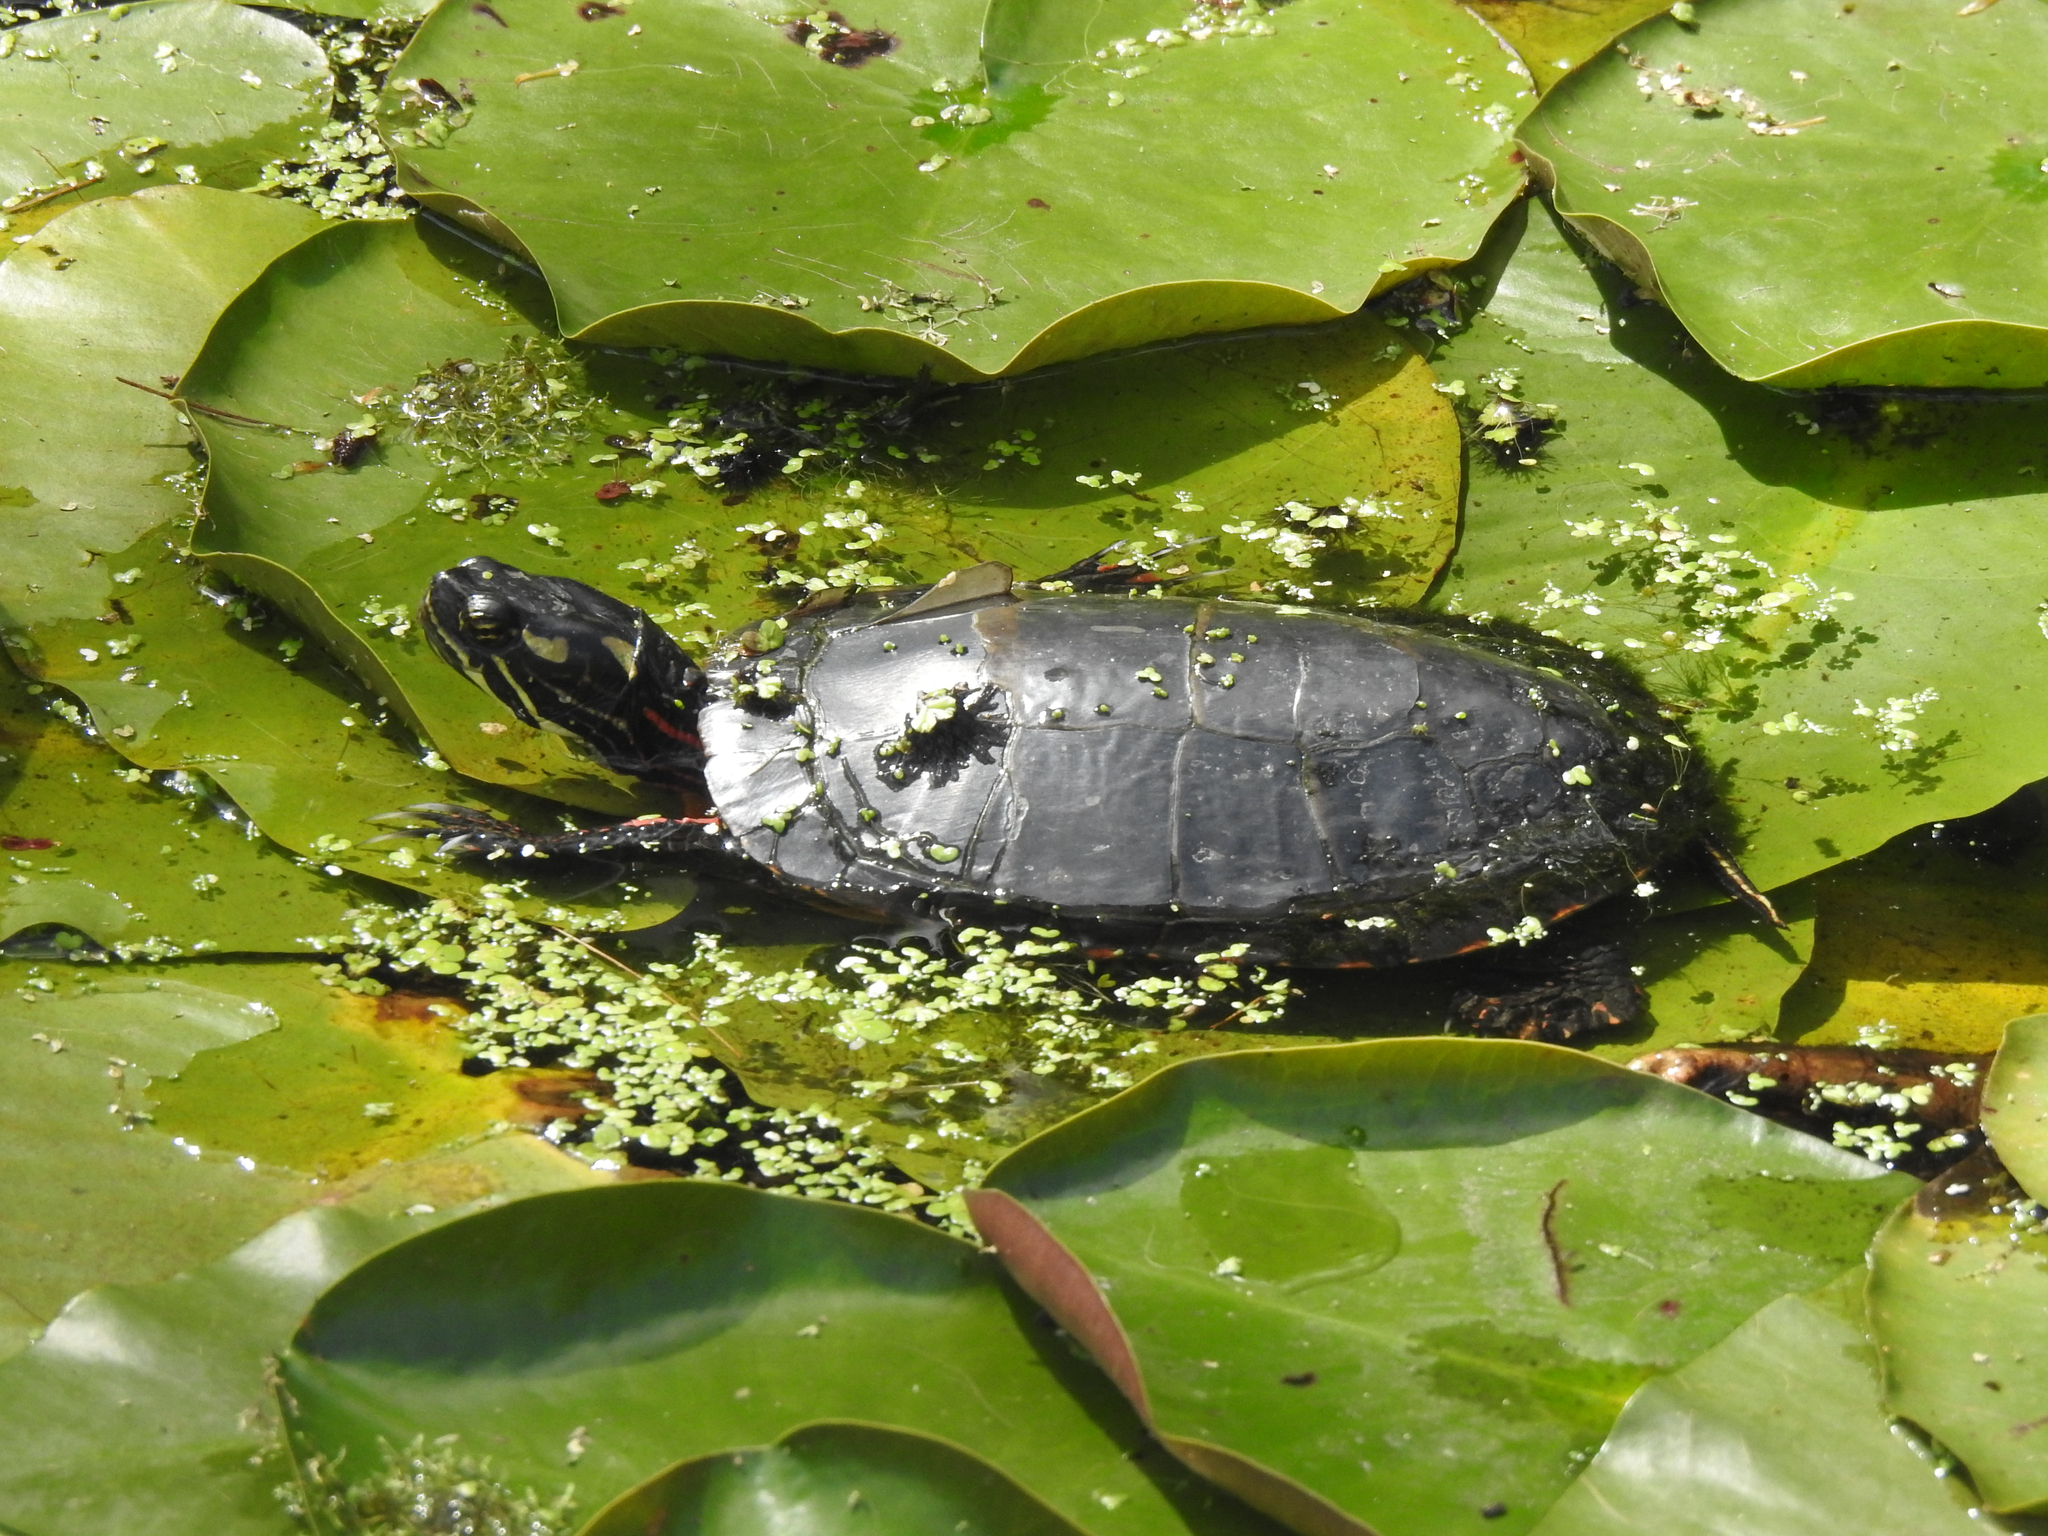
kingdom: Animalia
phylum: Chordata
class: Testudines
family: Emydidae
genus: Chrysemys
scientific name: Chrysemys picta
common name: Painted turtle
